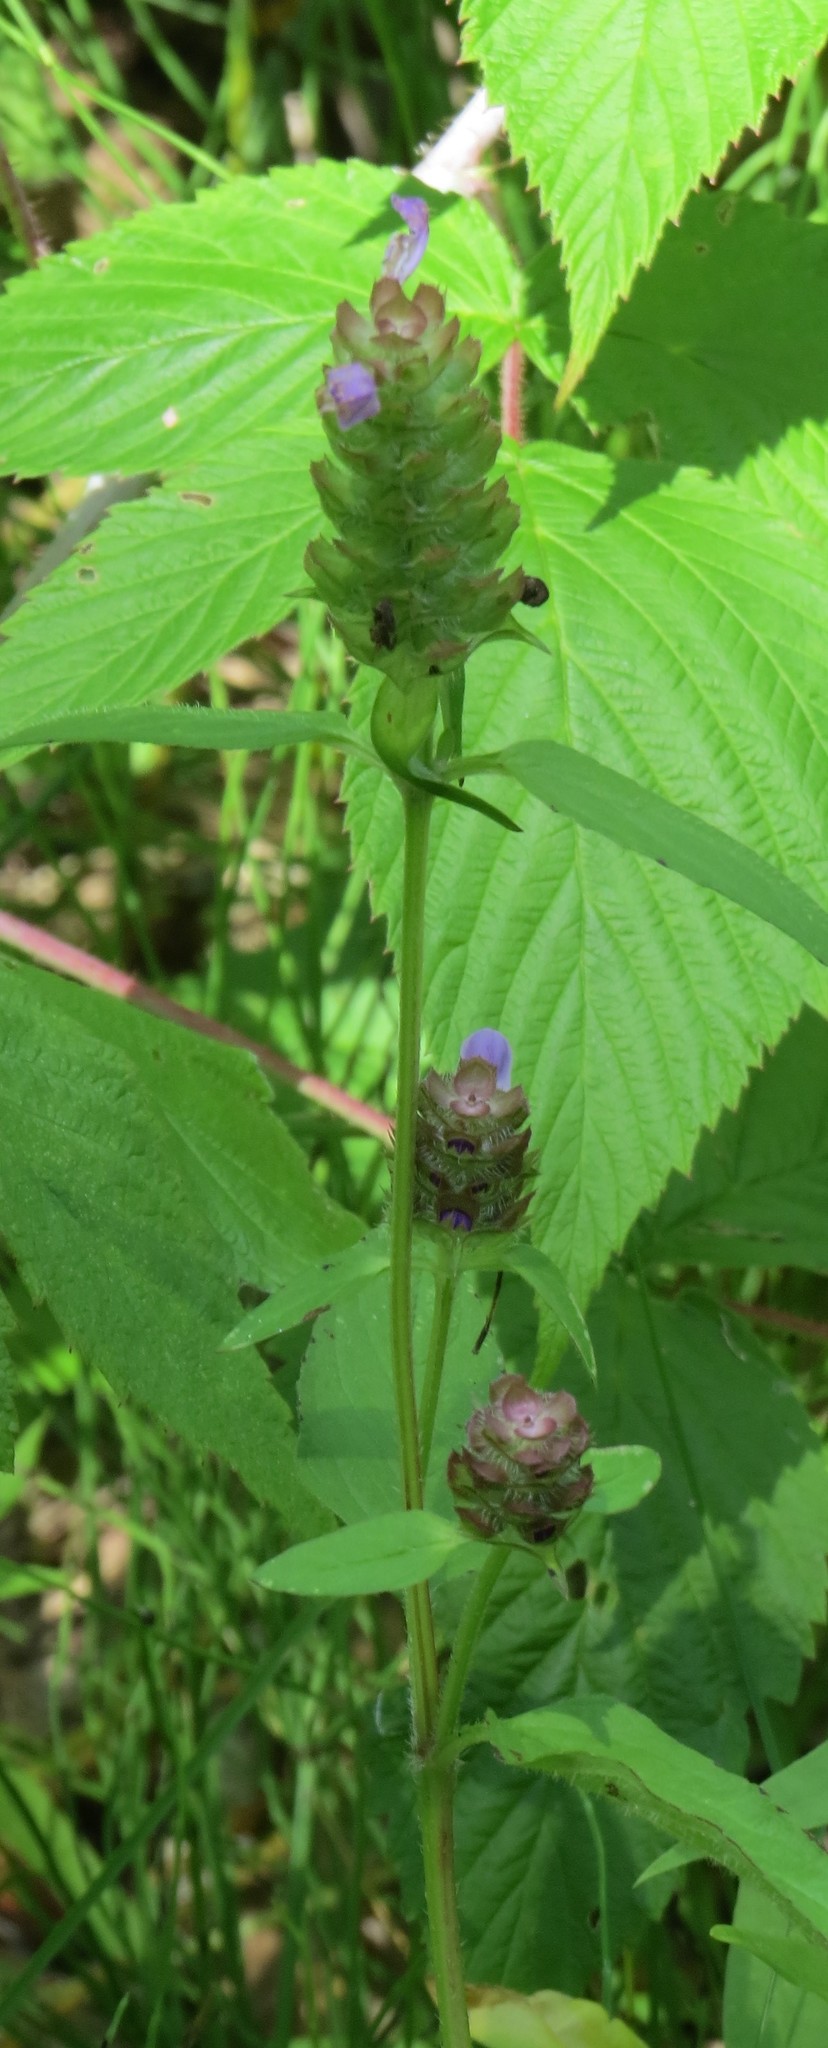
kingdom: Plantae
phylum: Tracheophyta
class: Magnoliopsida
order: Lamiales
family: Lamiaceae
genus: Prunella
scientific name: Prunella vulgaris
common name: Heal-all
